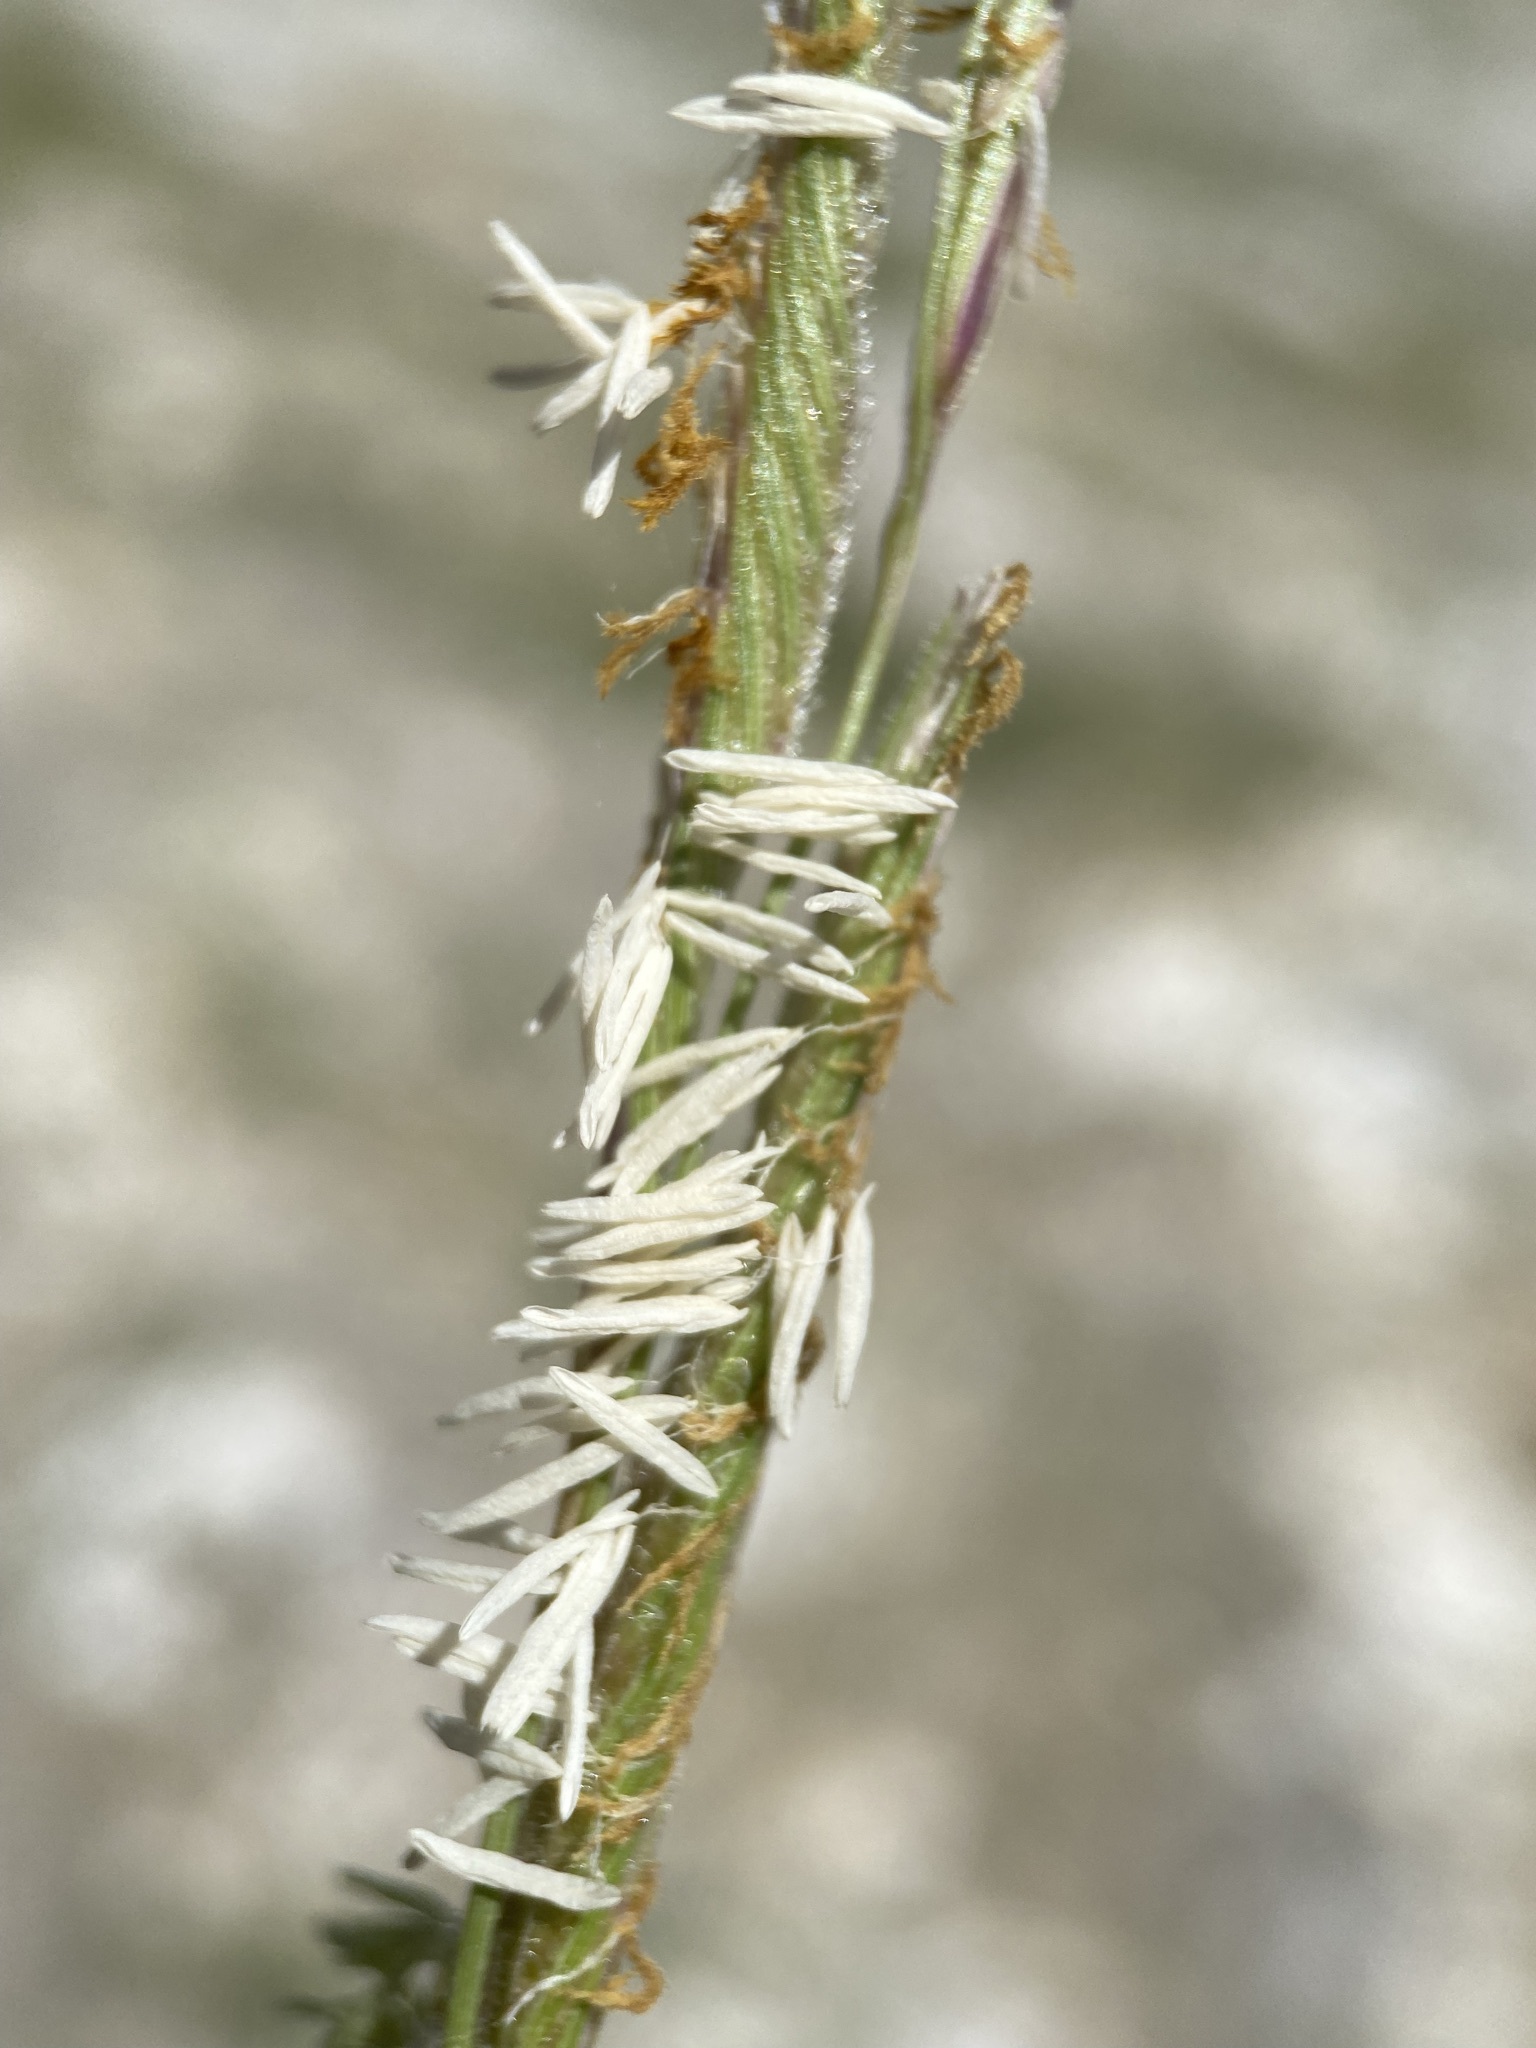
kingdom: Plantae
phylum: Tracheophyta
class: Liliopsida
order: Poales
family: Poaceae
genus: Sporobolus
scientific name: Sporobolus hookerianus
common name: Alkali cordgrass
